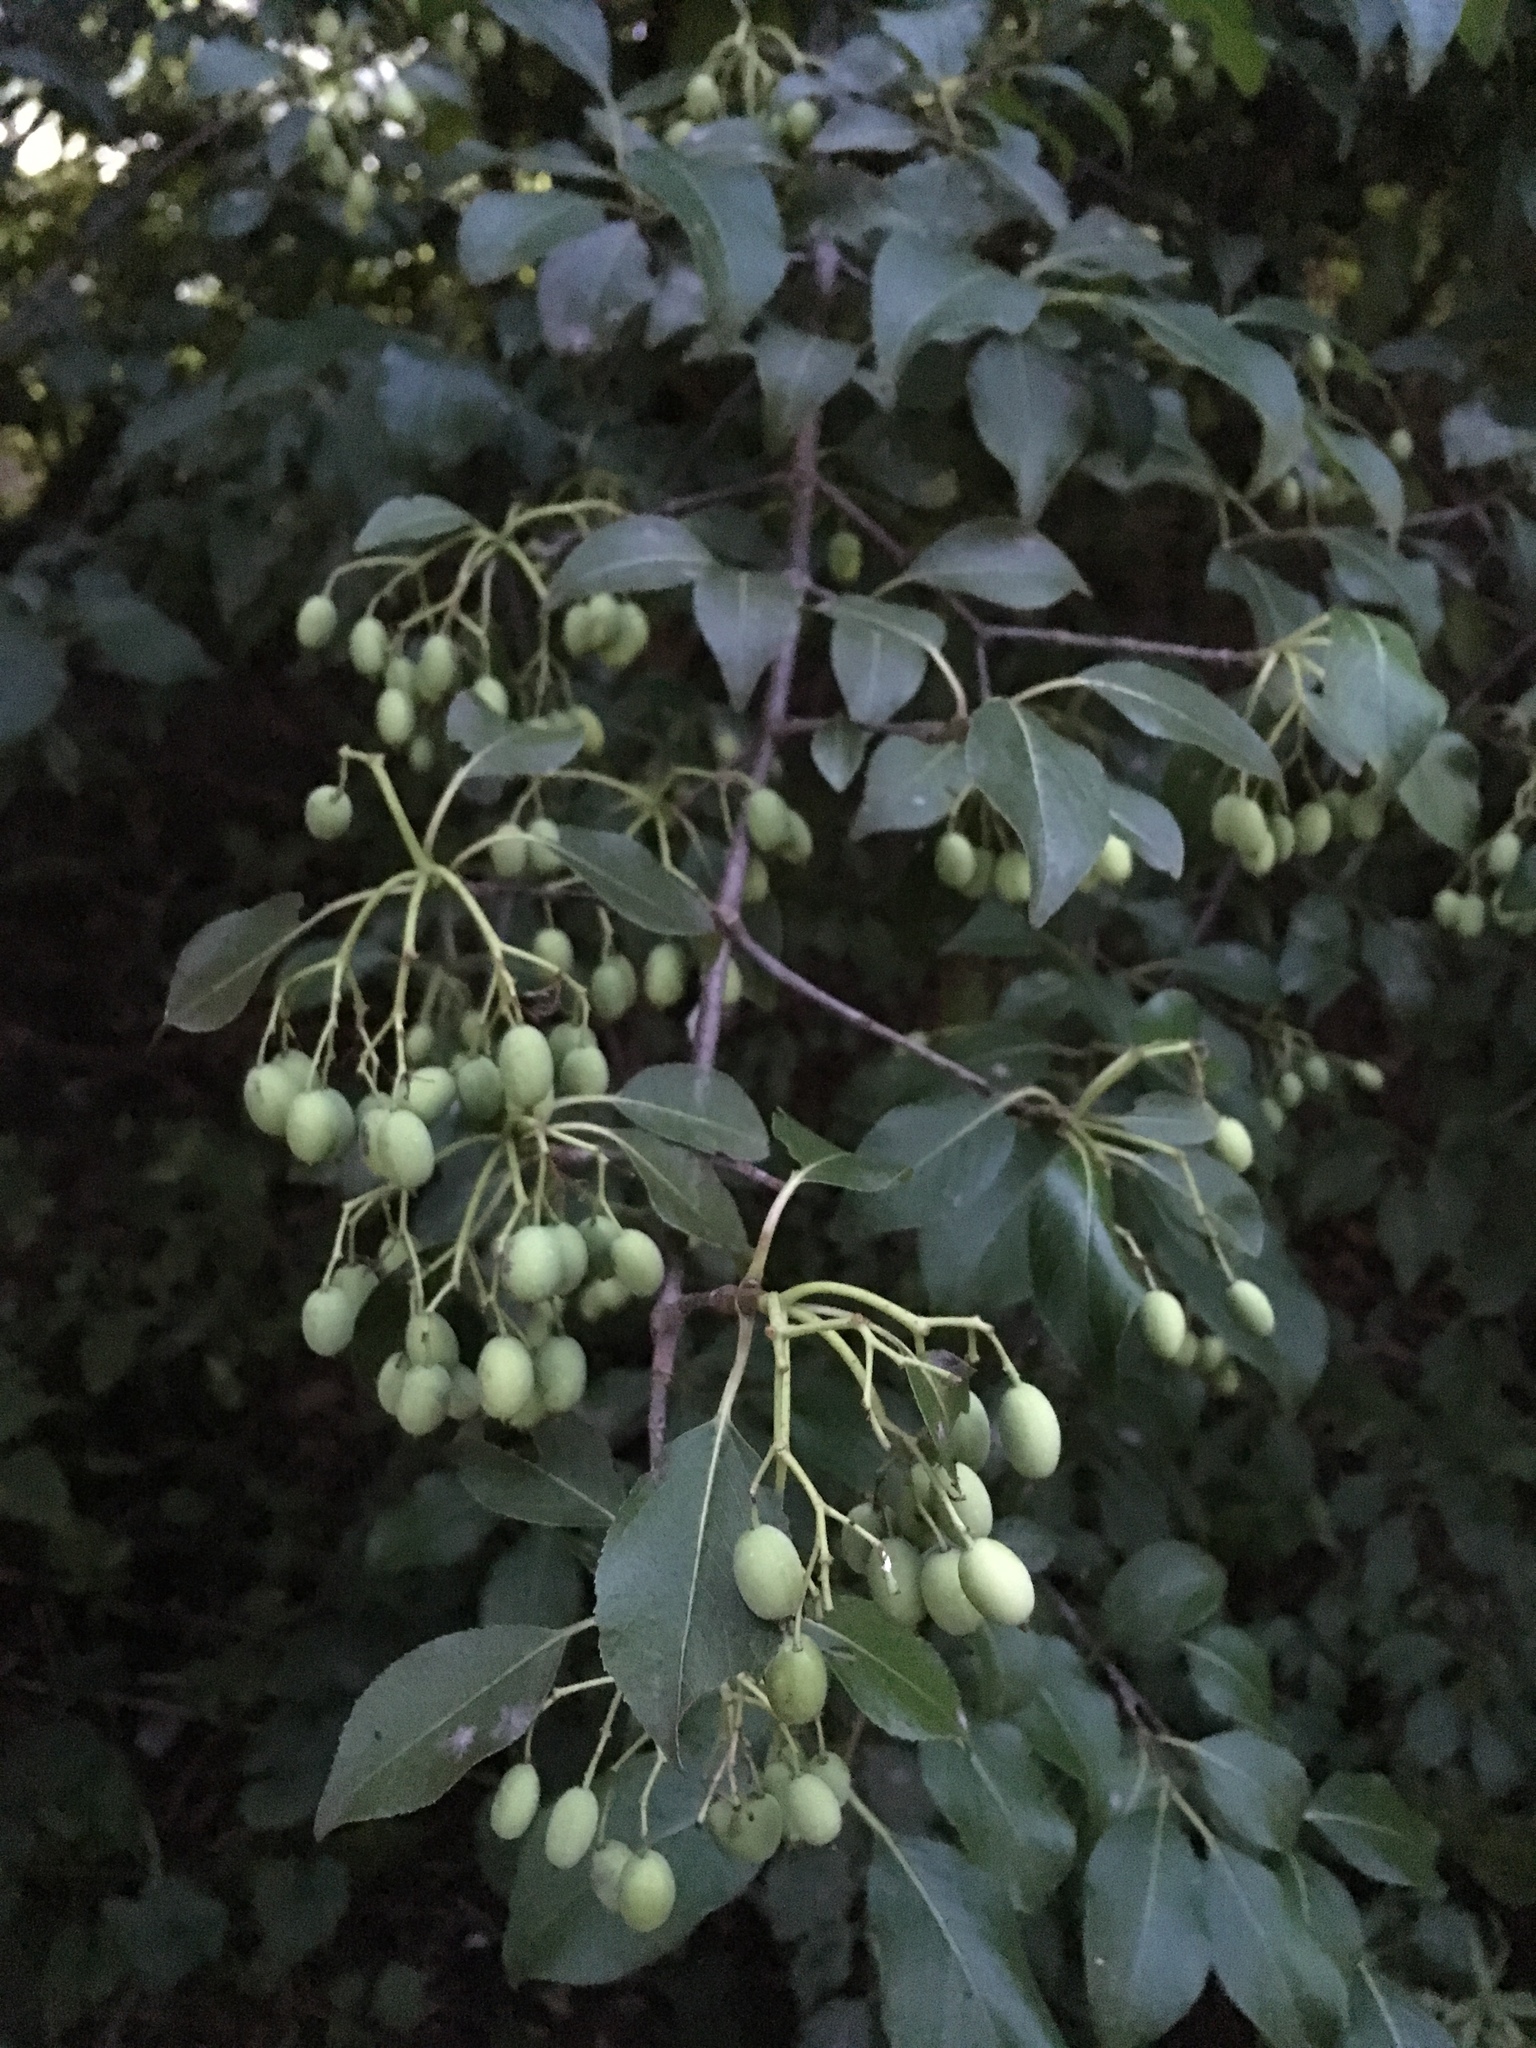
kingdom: Plantae
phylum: Tracheophyta
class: Magnoliopsida
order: Dipsacales
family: Viburnaceae
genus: Viburnum
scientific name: Viburnum prunifolium
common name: Black haw
